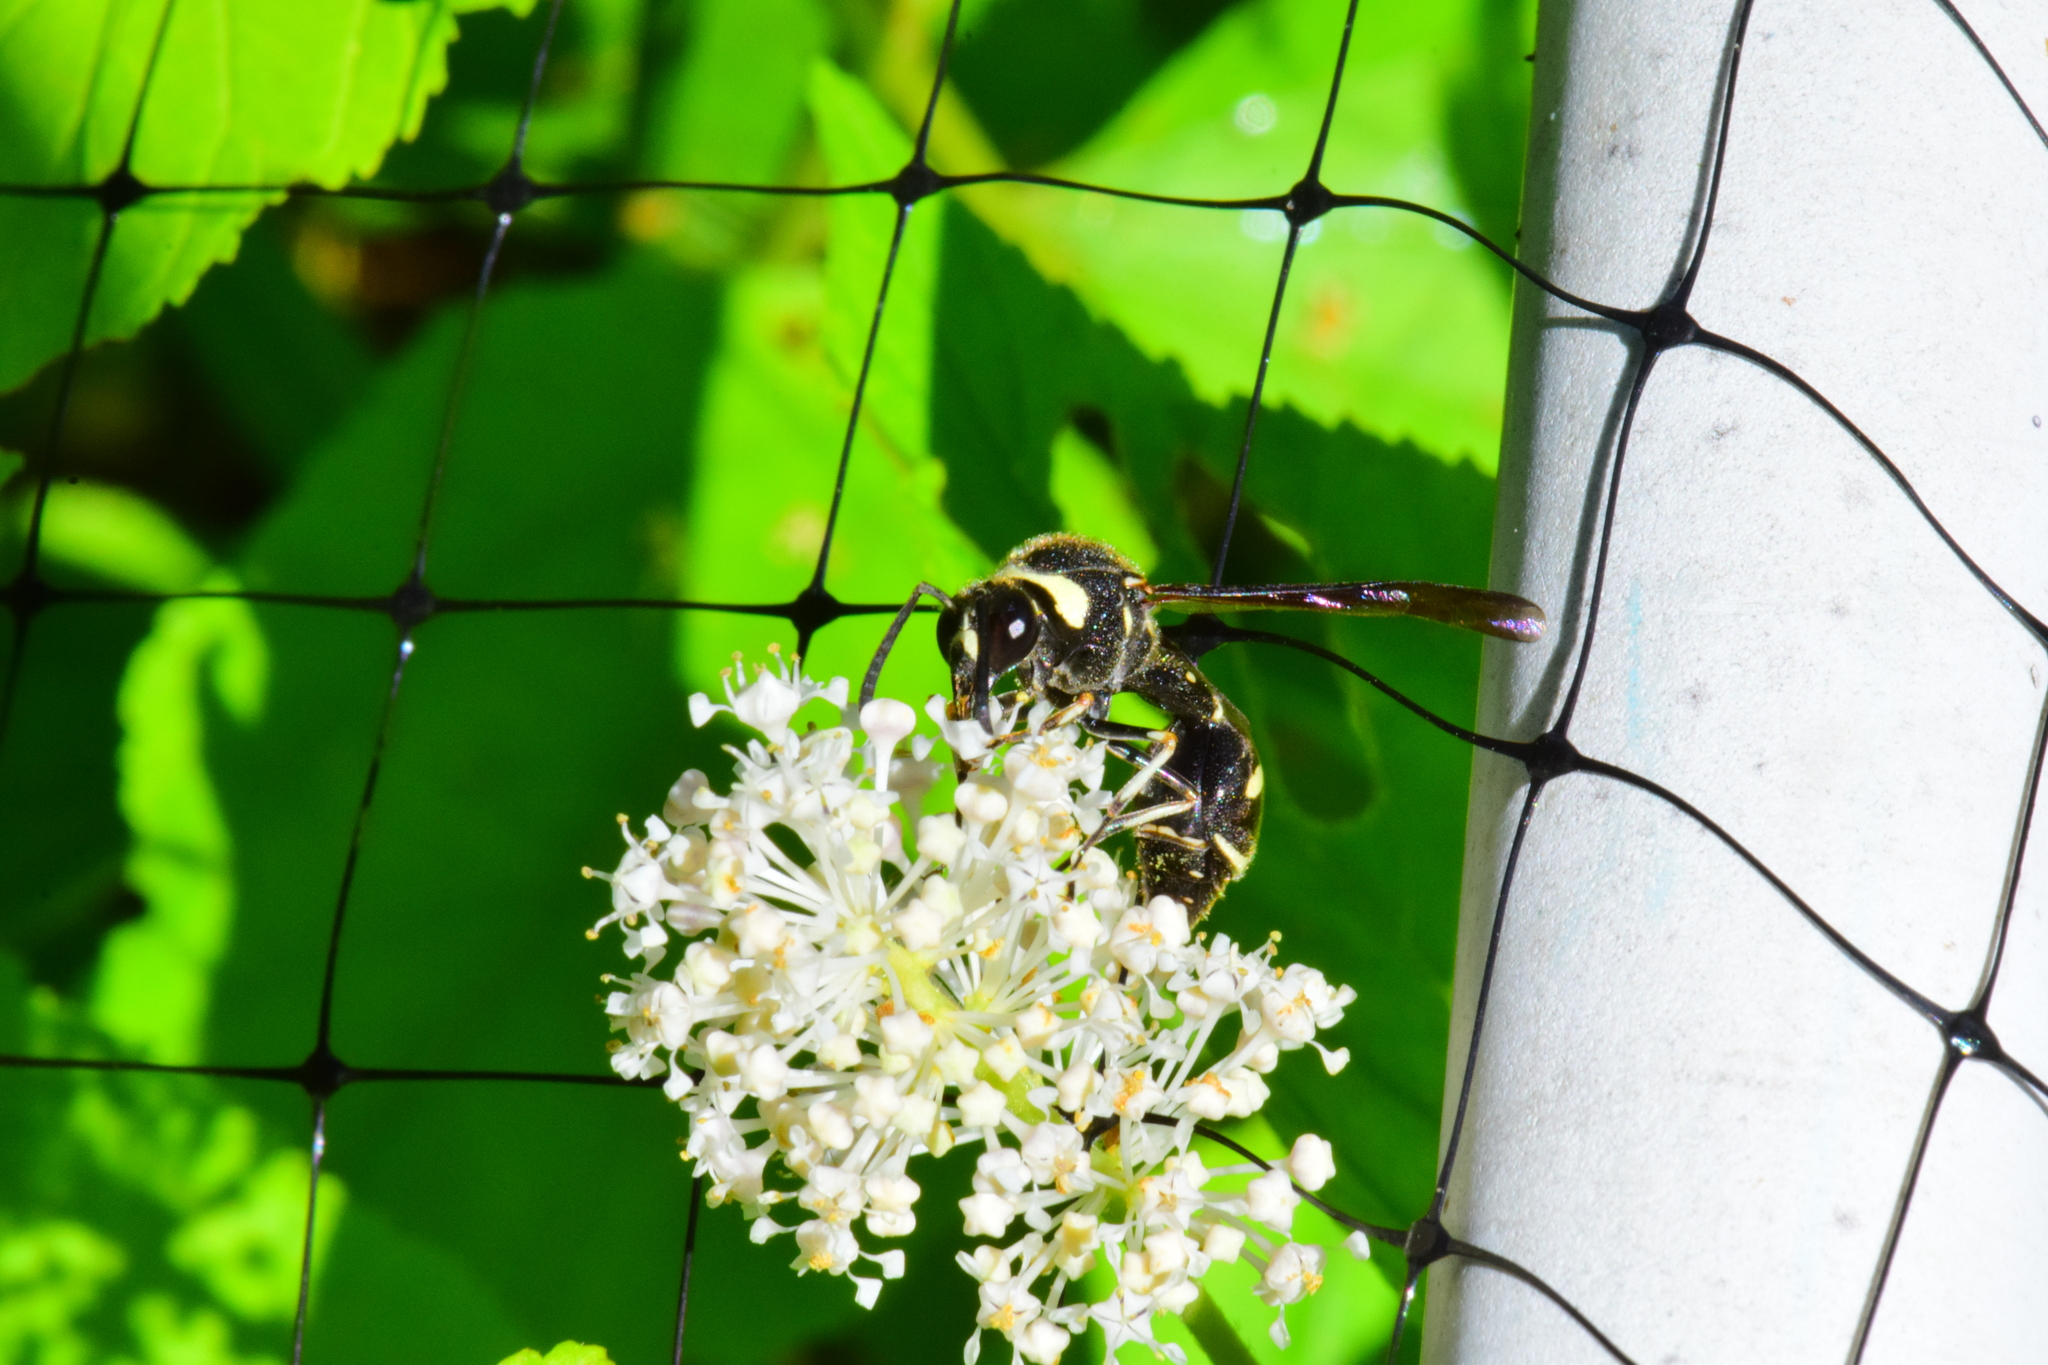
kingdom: Animalia
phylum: Arthropoda
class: Insecta
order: Hymenoptera
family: Vespidae
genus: Eumenes
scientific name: Eumenes crucifera
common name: Cross potter wasp
